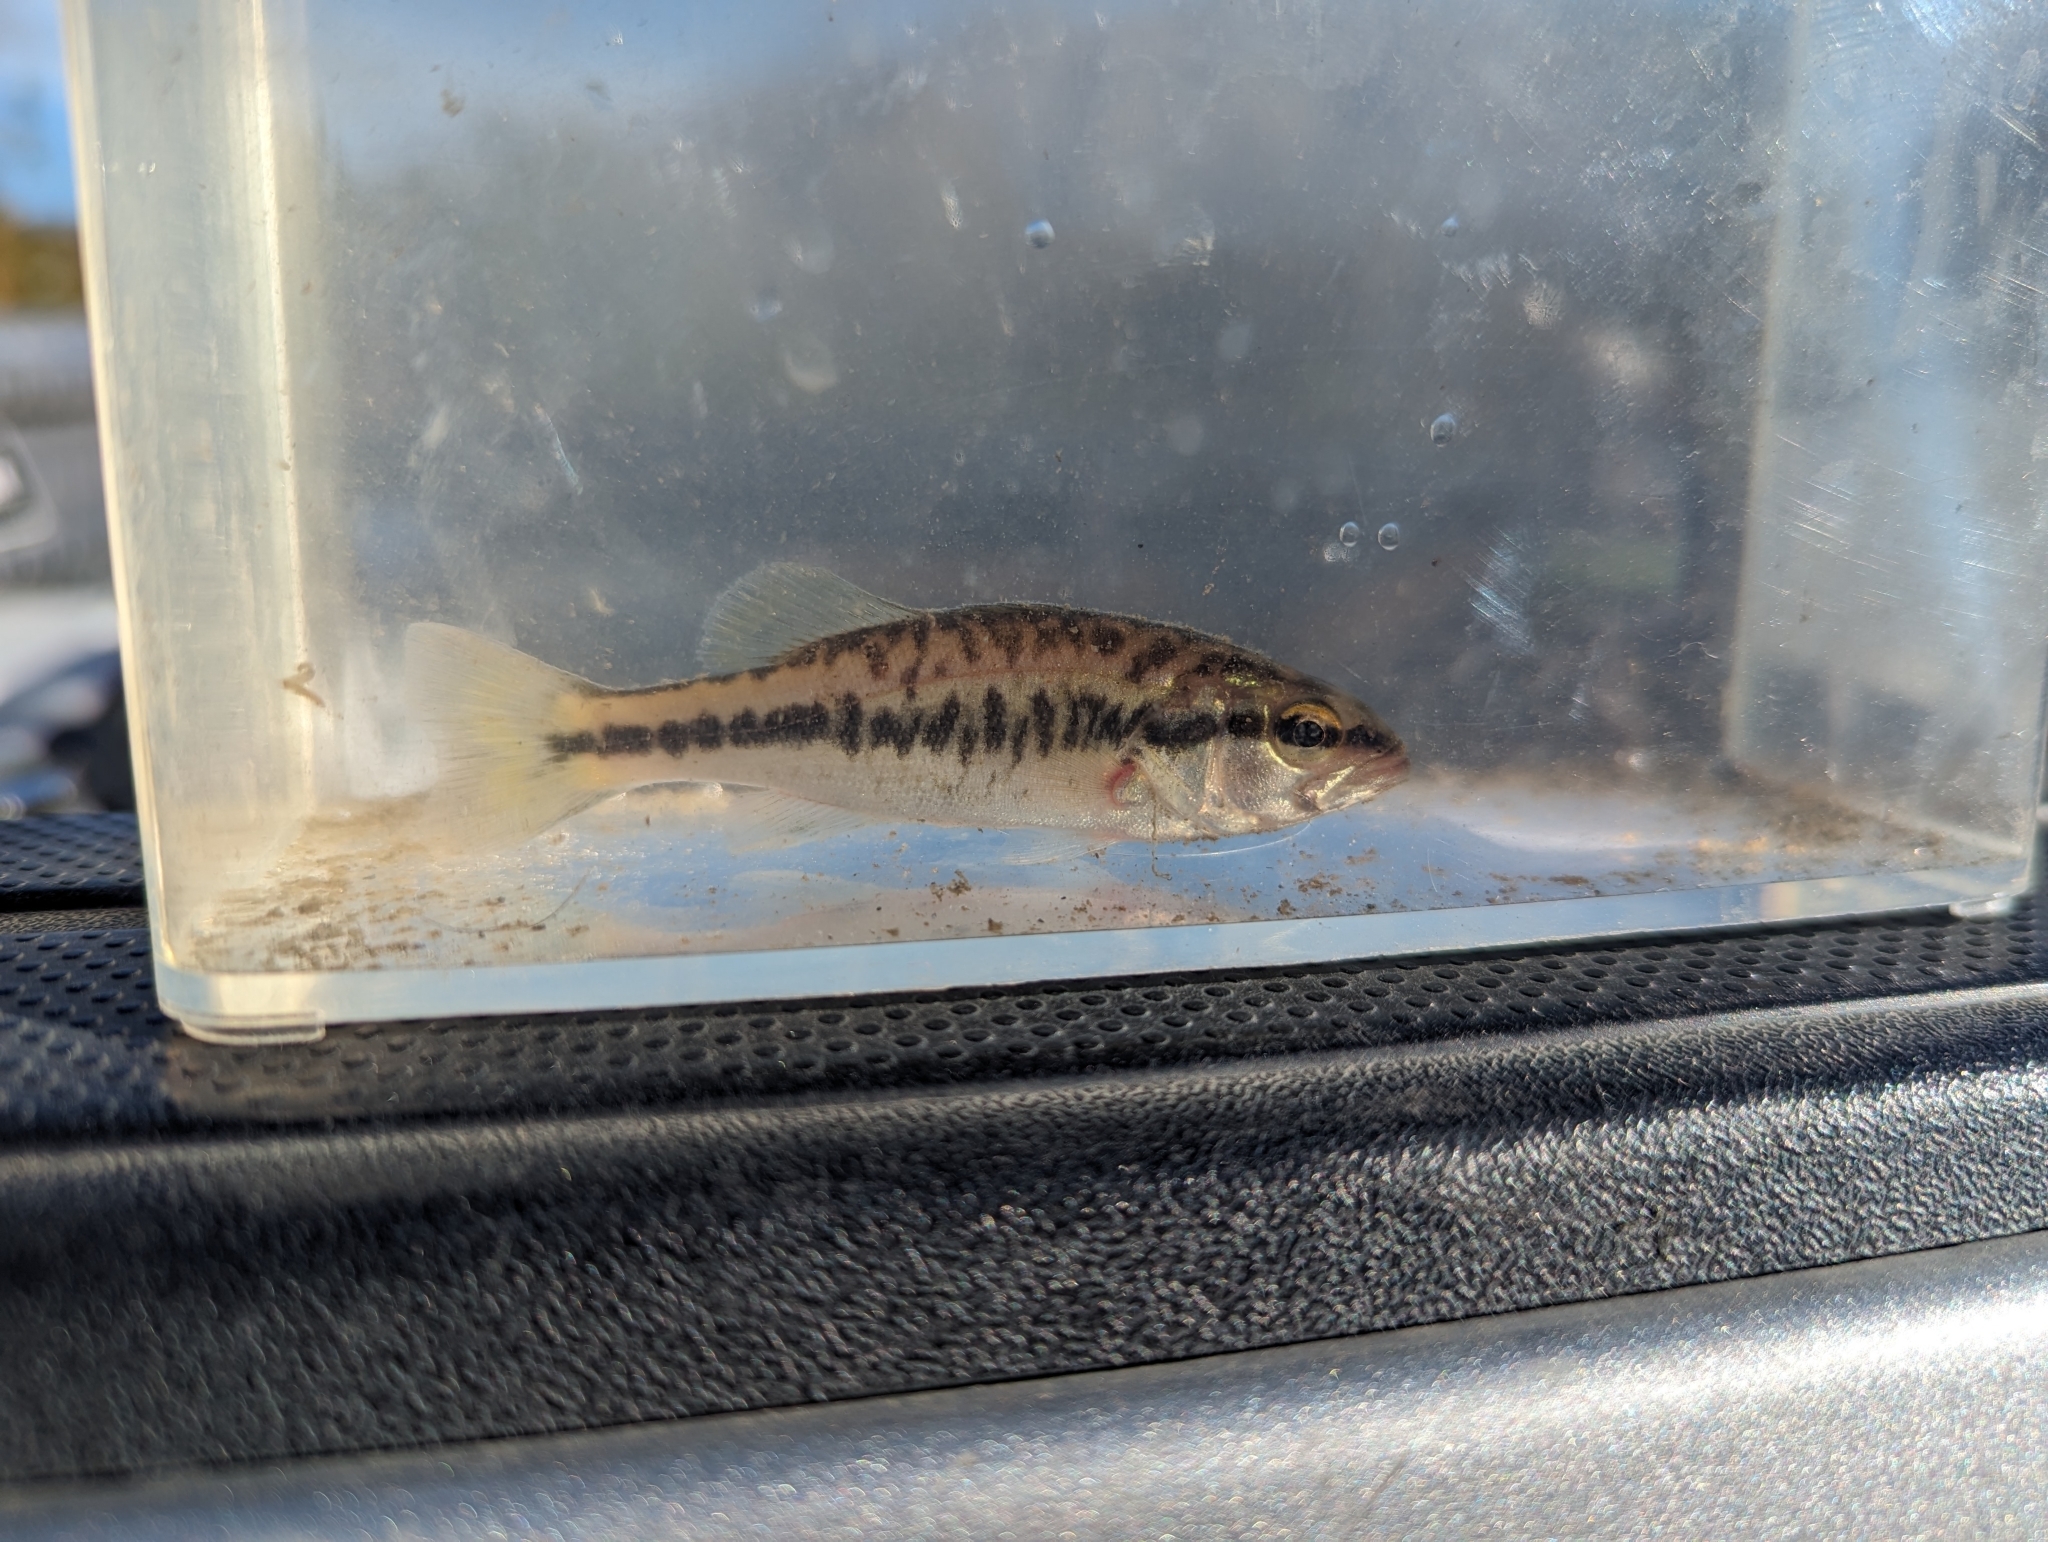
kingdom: Animalia
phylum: Chordata
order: Perciformes
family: Centrarchidae
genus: Micropterus
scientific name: Micropterus
